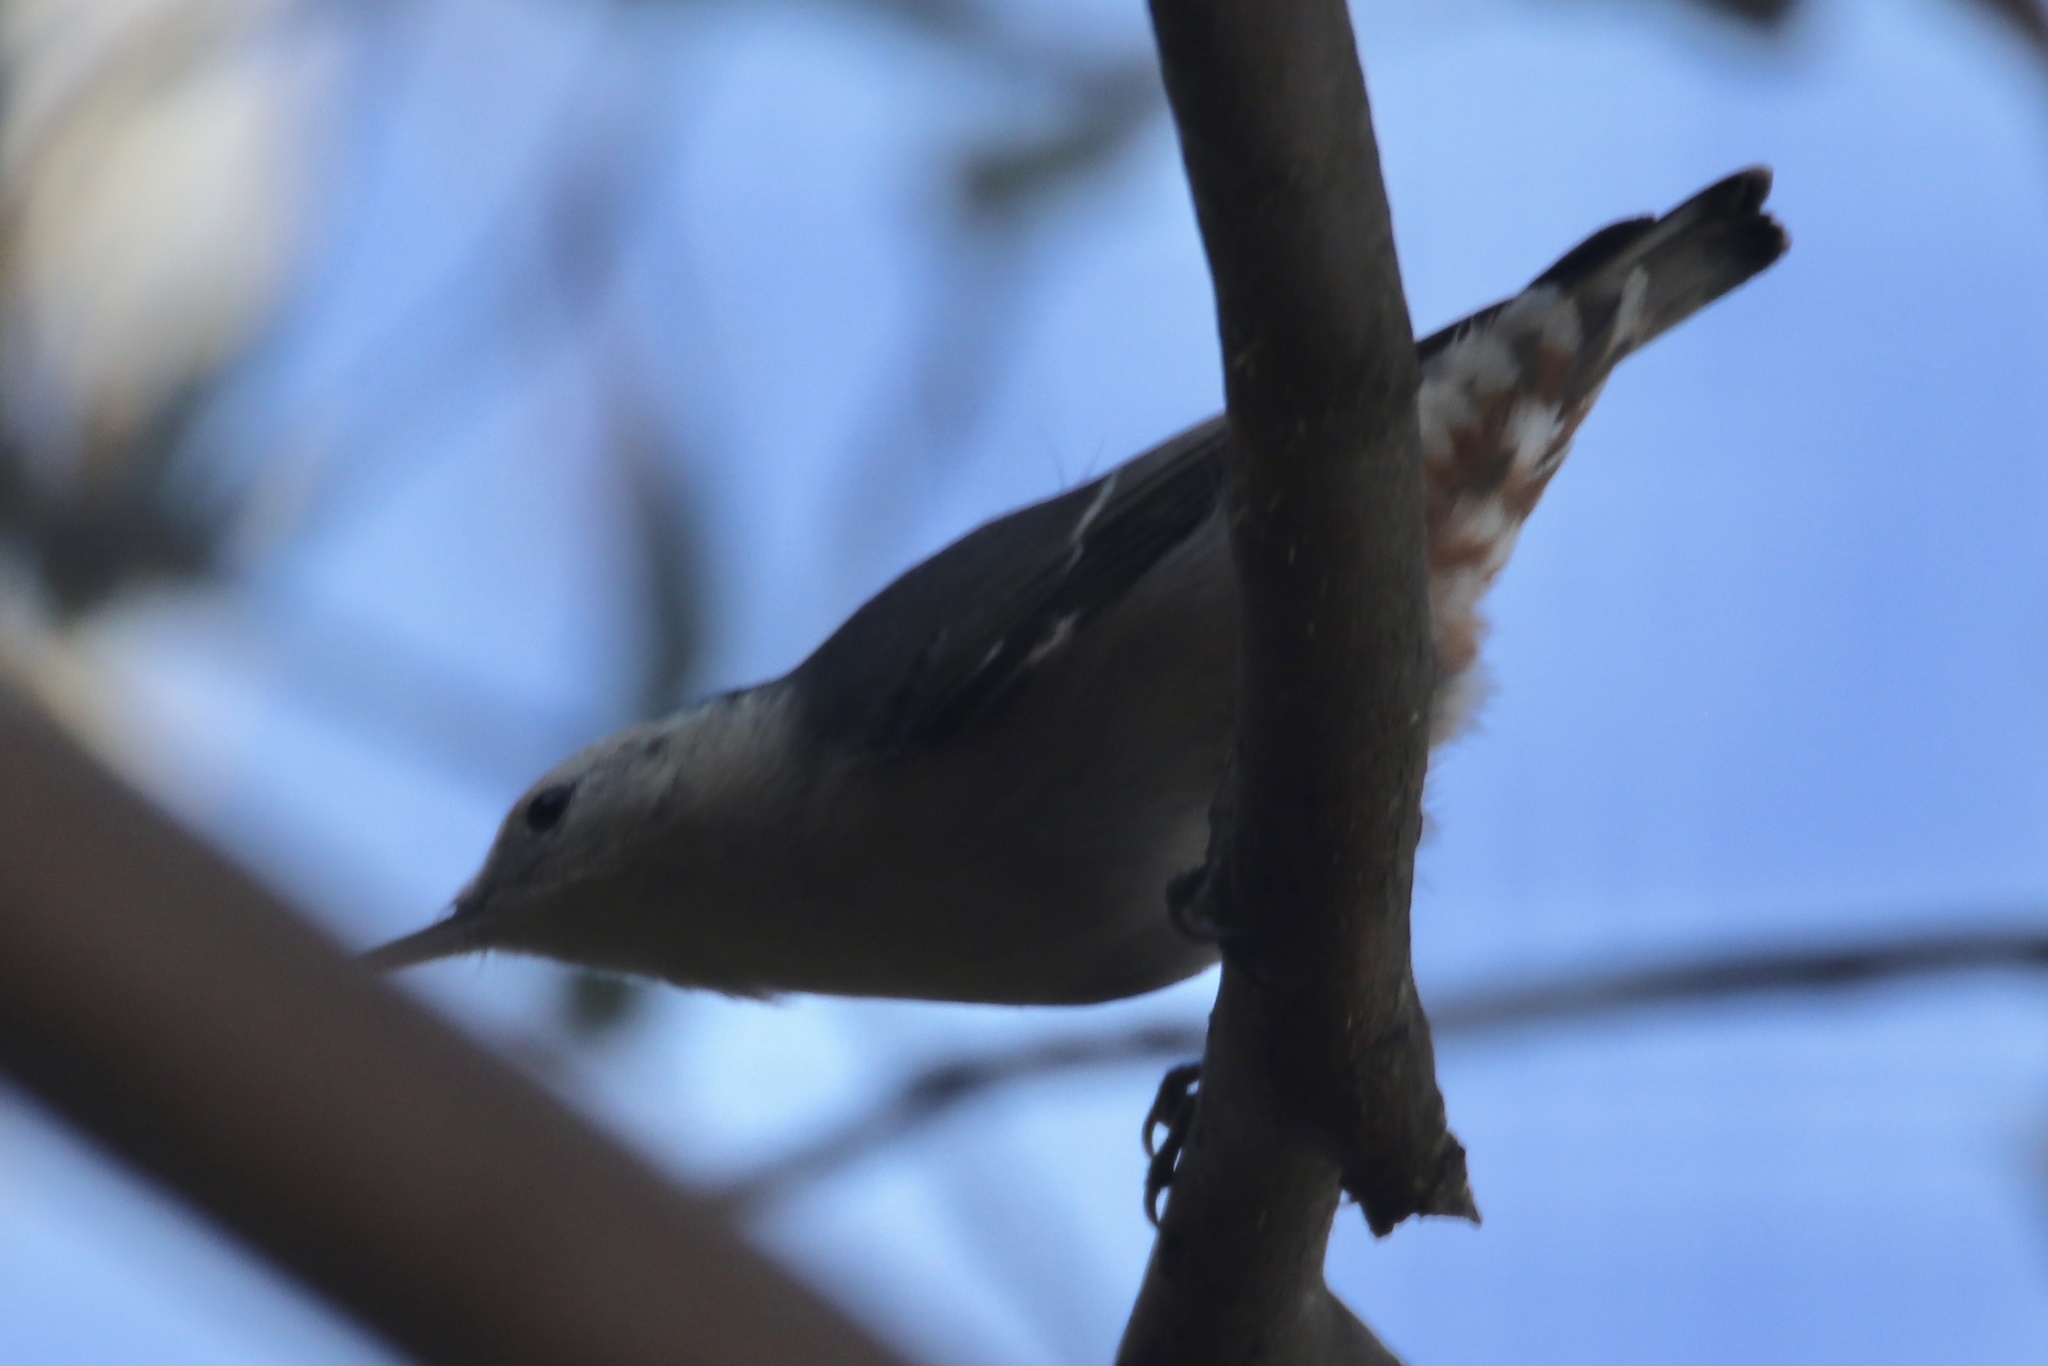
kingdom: Animalia
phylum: Chordata
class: Aves
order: Passeriformes
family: Sittidae
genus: Sitta
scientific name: Sitta carolinensis
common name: White-breasted nuthatch
